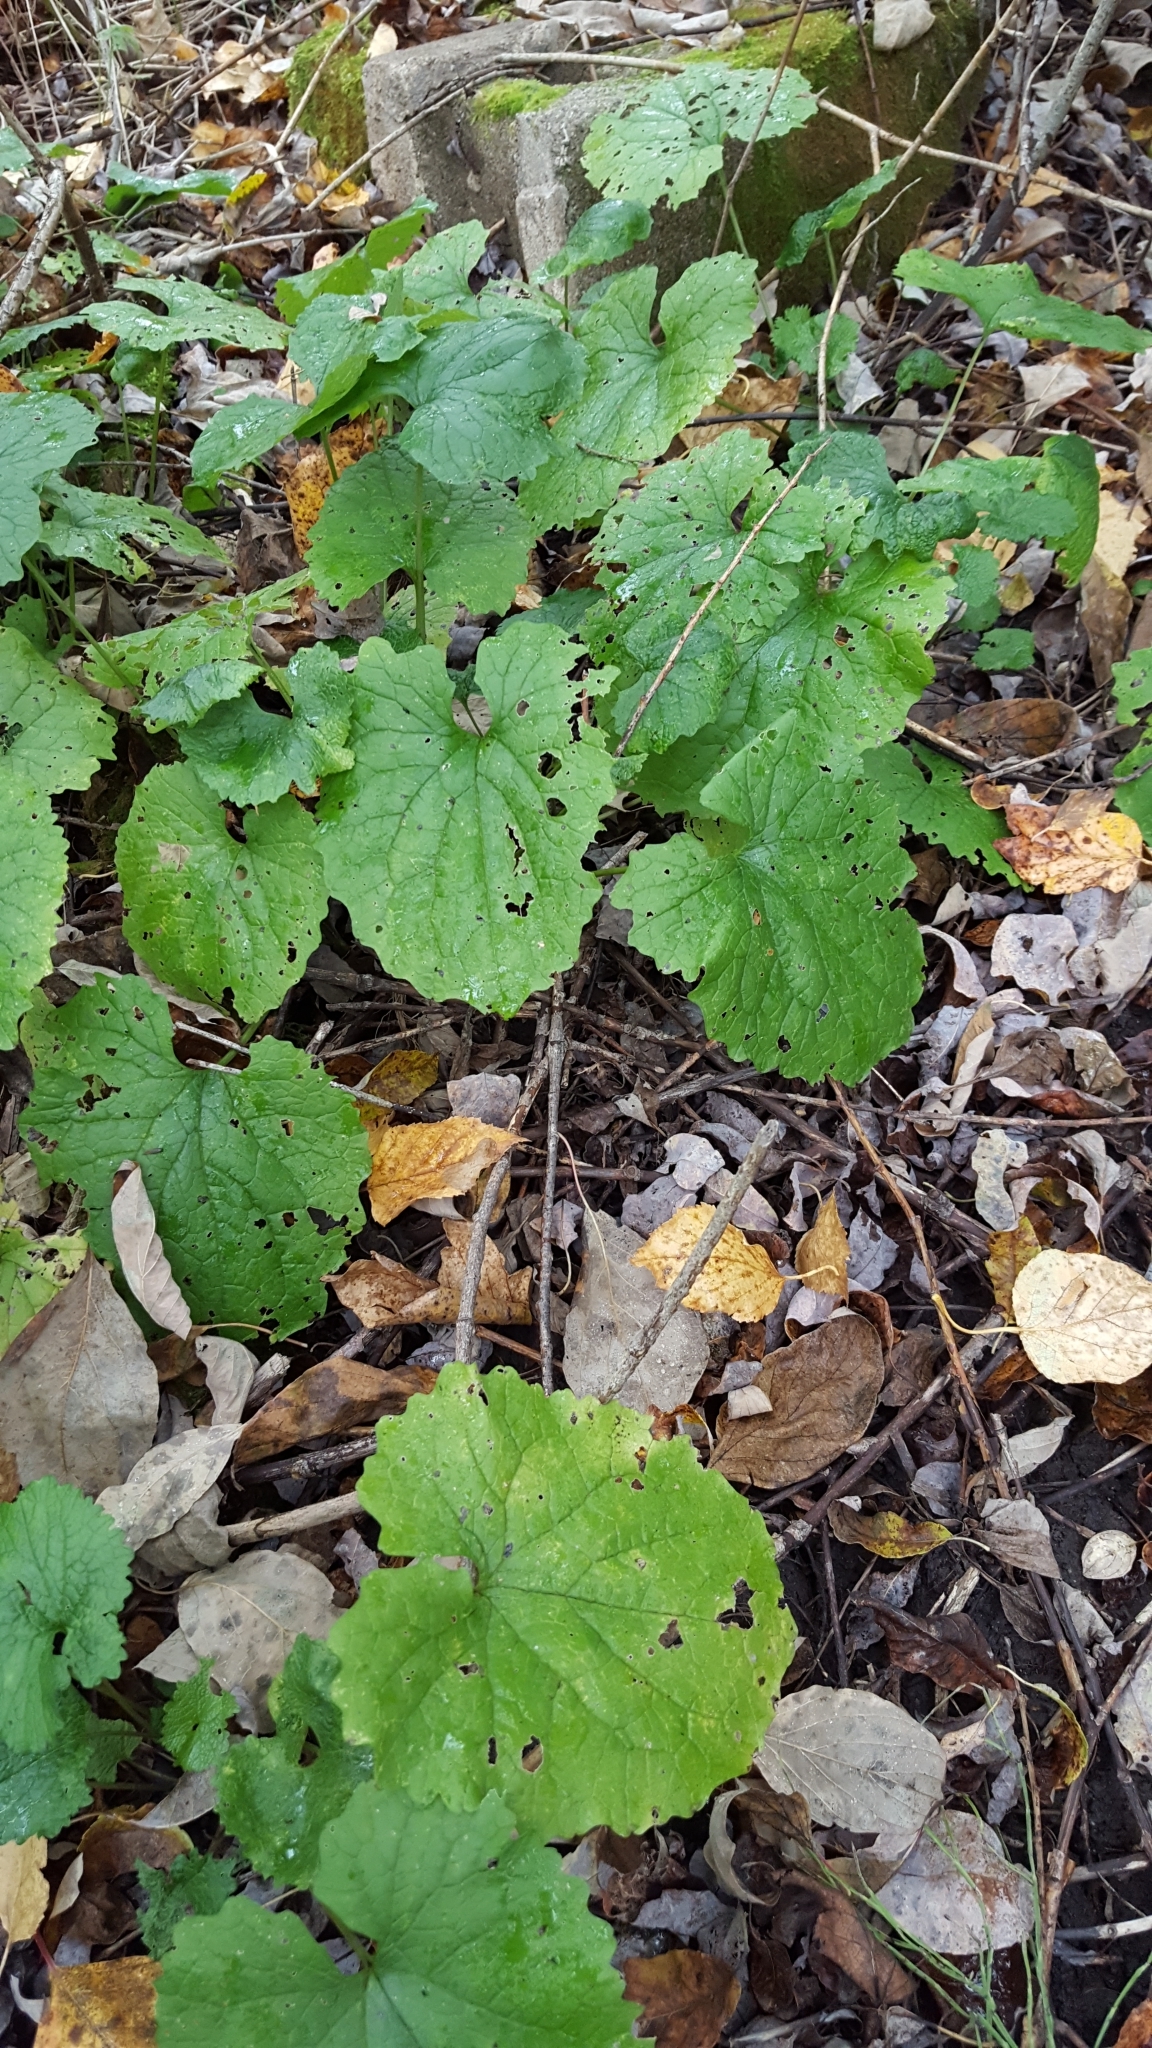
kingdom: Plantae
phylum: Tracheophyta
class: Magnoliopsida
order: Brassicales
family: Brassicaceae
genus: Alliaria
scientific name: Alliaria petiolata
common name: Garlic mustard
